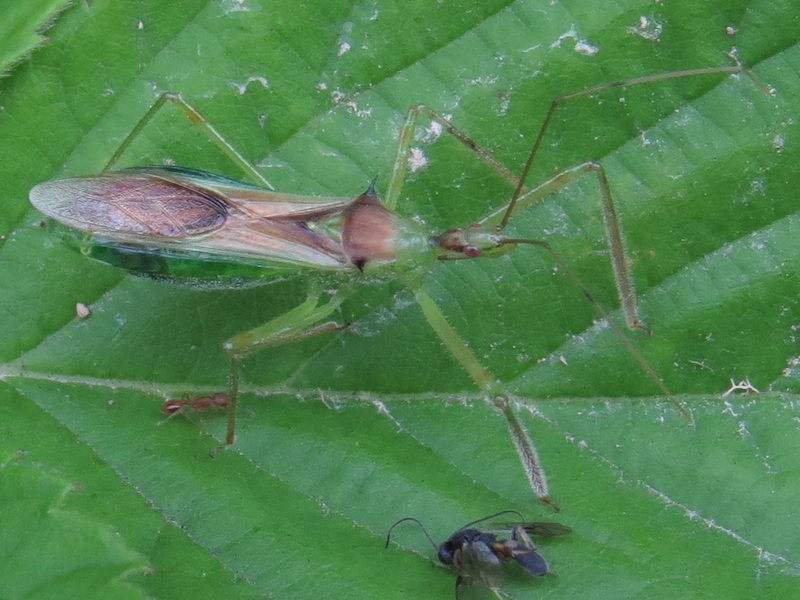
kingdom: Animalia
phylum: Arthropoda
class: Insecta
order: Hemiptera
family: Reduviidae
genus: Zelus
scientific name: Zelus luridus
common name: Pale green assassin bug
